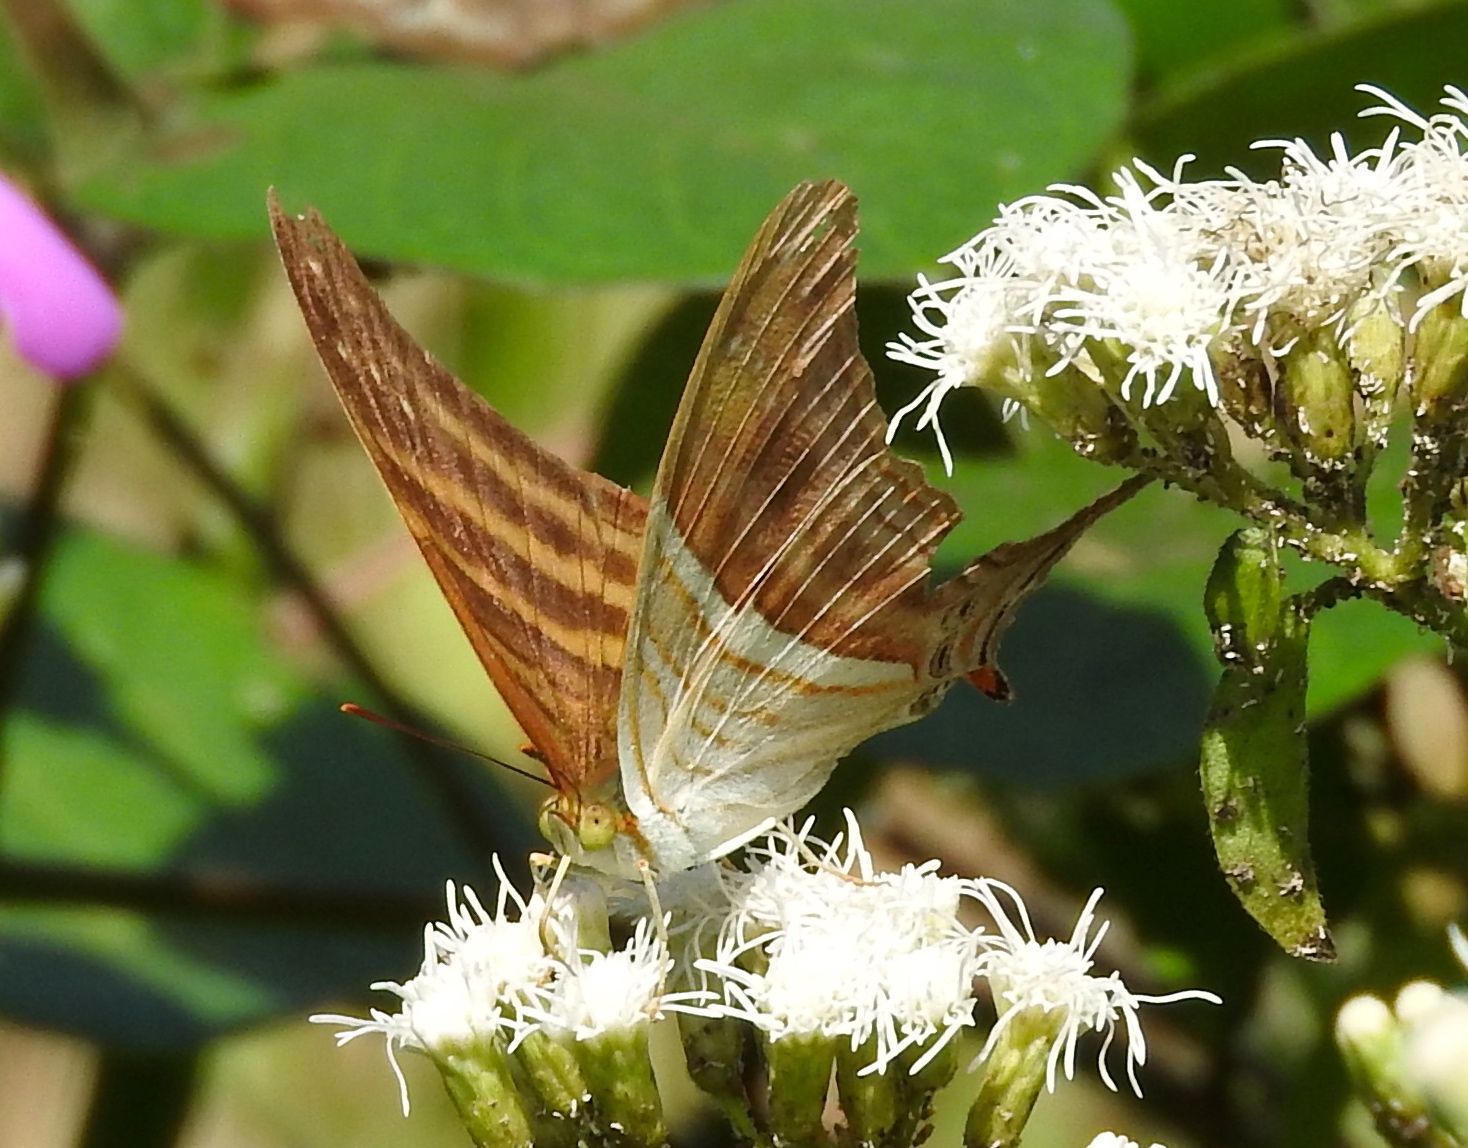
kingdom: Animalia
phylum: Arthropoda
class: Insecta
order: Lepidoptera
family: Nymphalidae
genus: Marpesia
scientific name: Marpesia chiron
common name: Many-banded daggerwing
